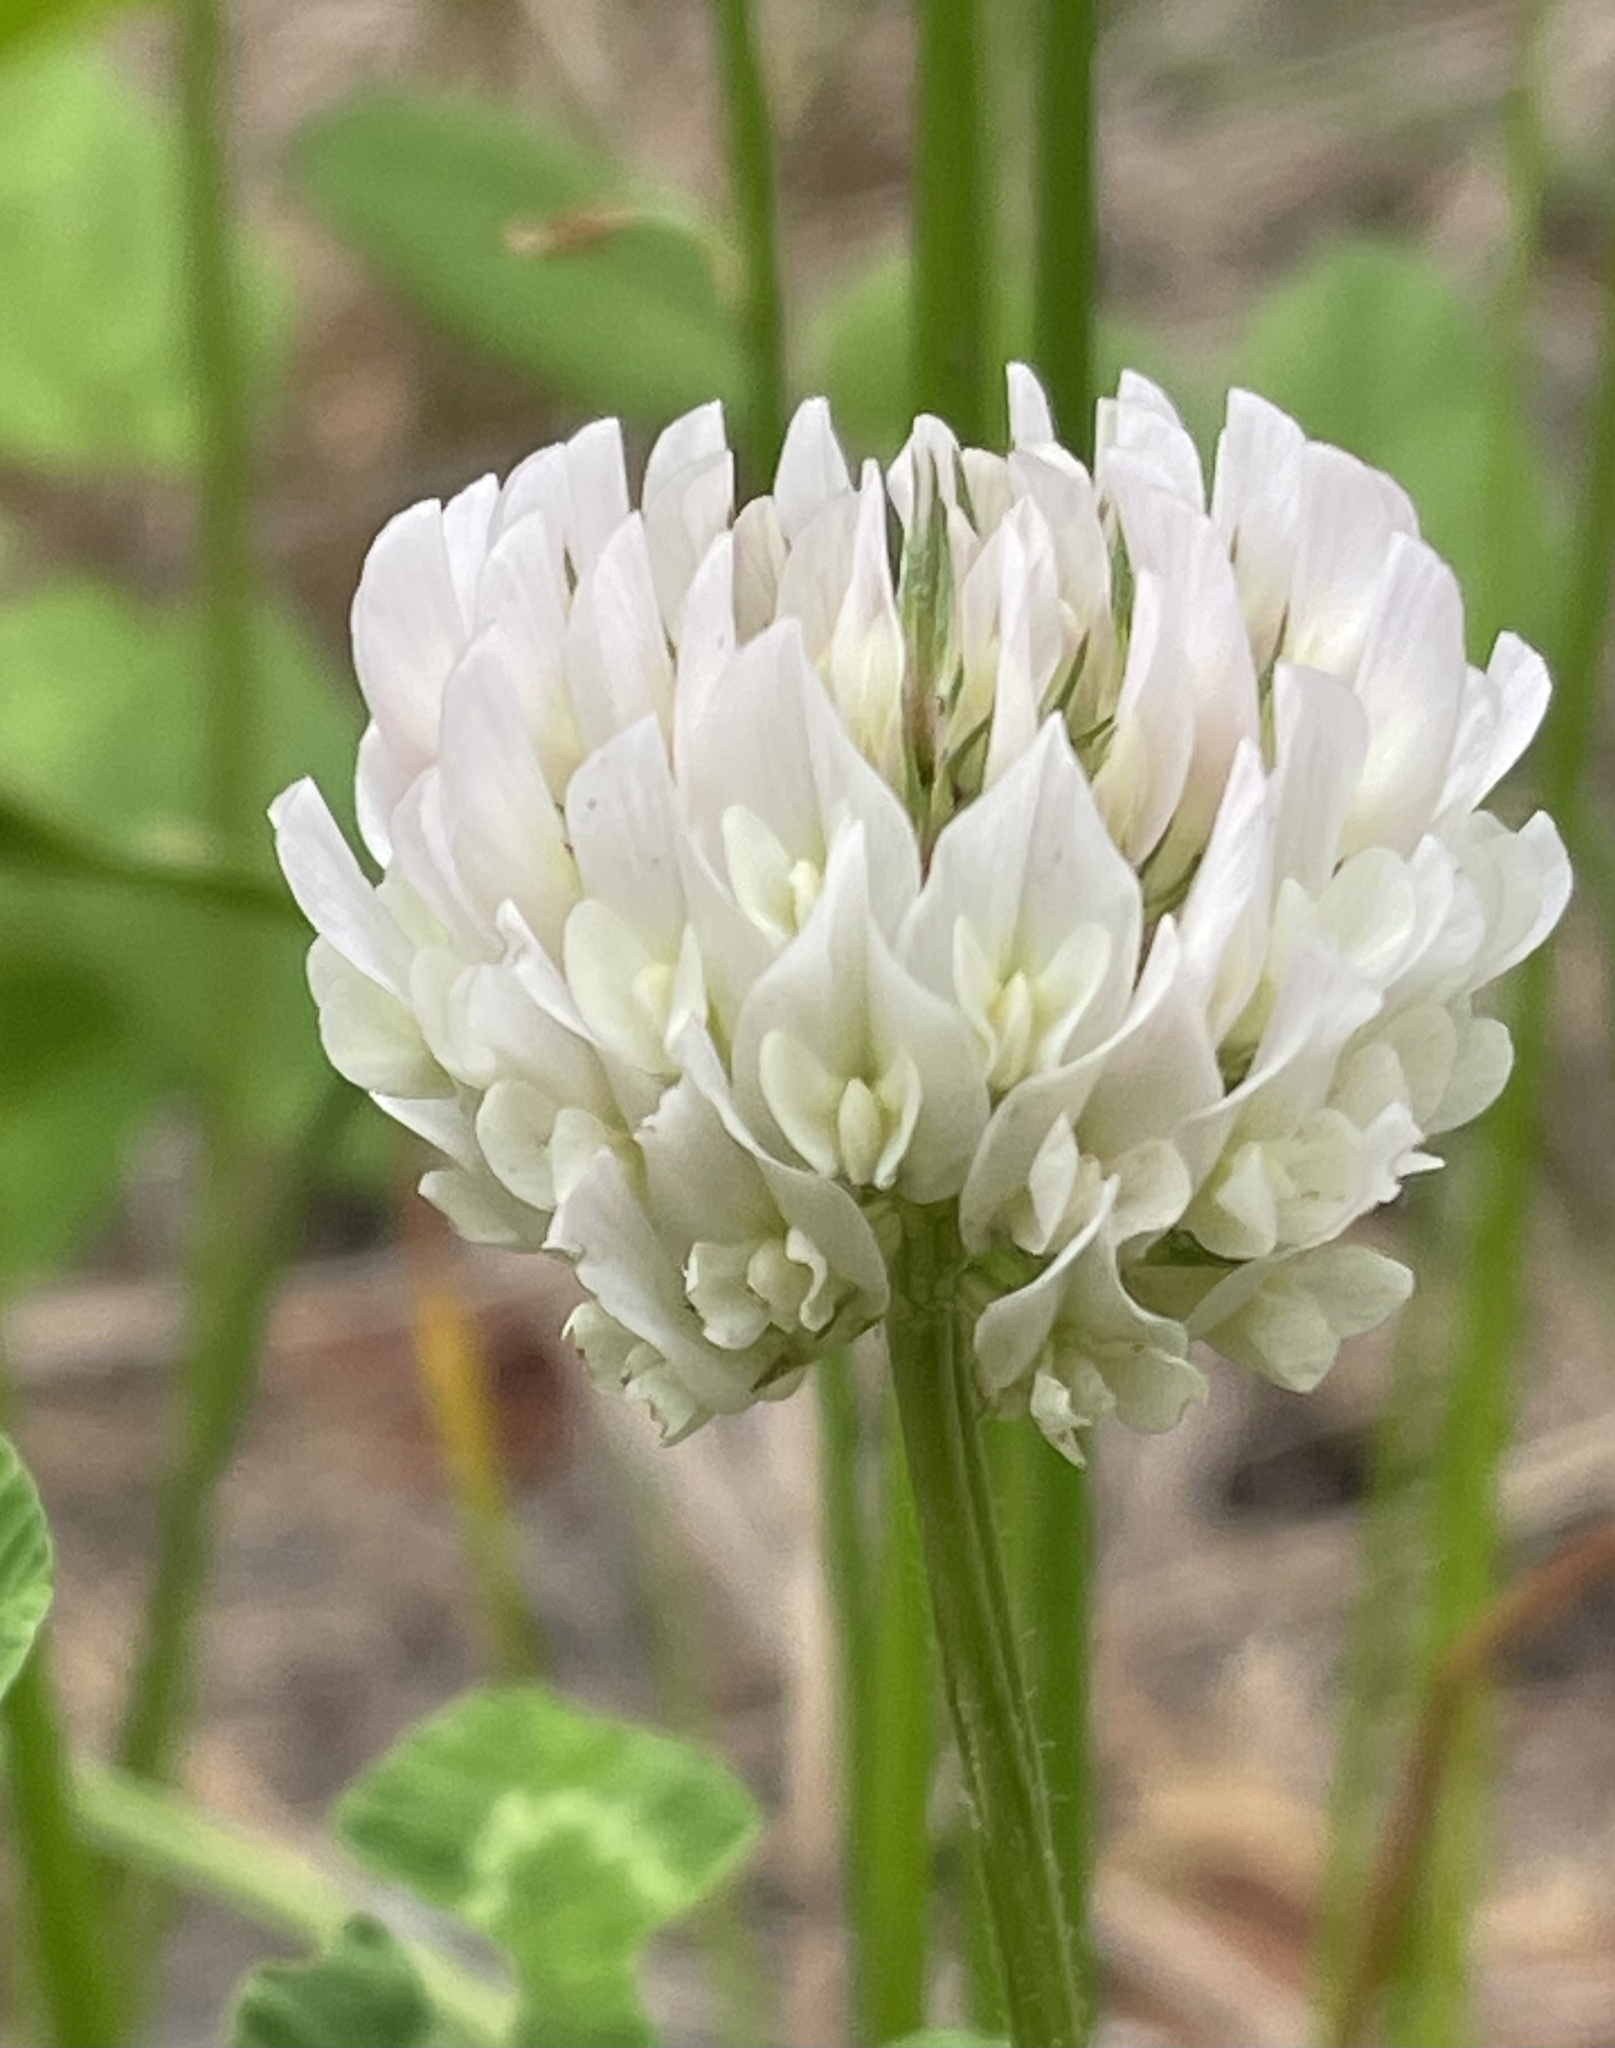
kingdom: Plantae
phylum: Tracheophyta
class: Magnoliopsida
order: Fabales
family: Fabaceae
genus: Trifolium
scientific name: Trifolium repens
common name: White clover
